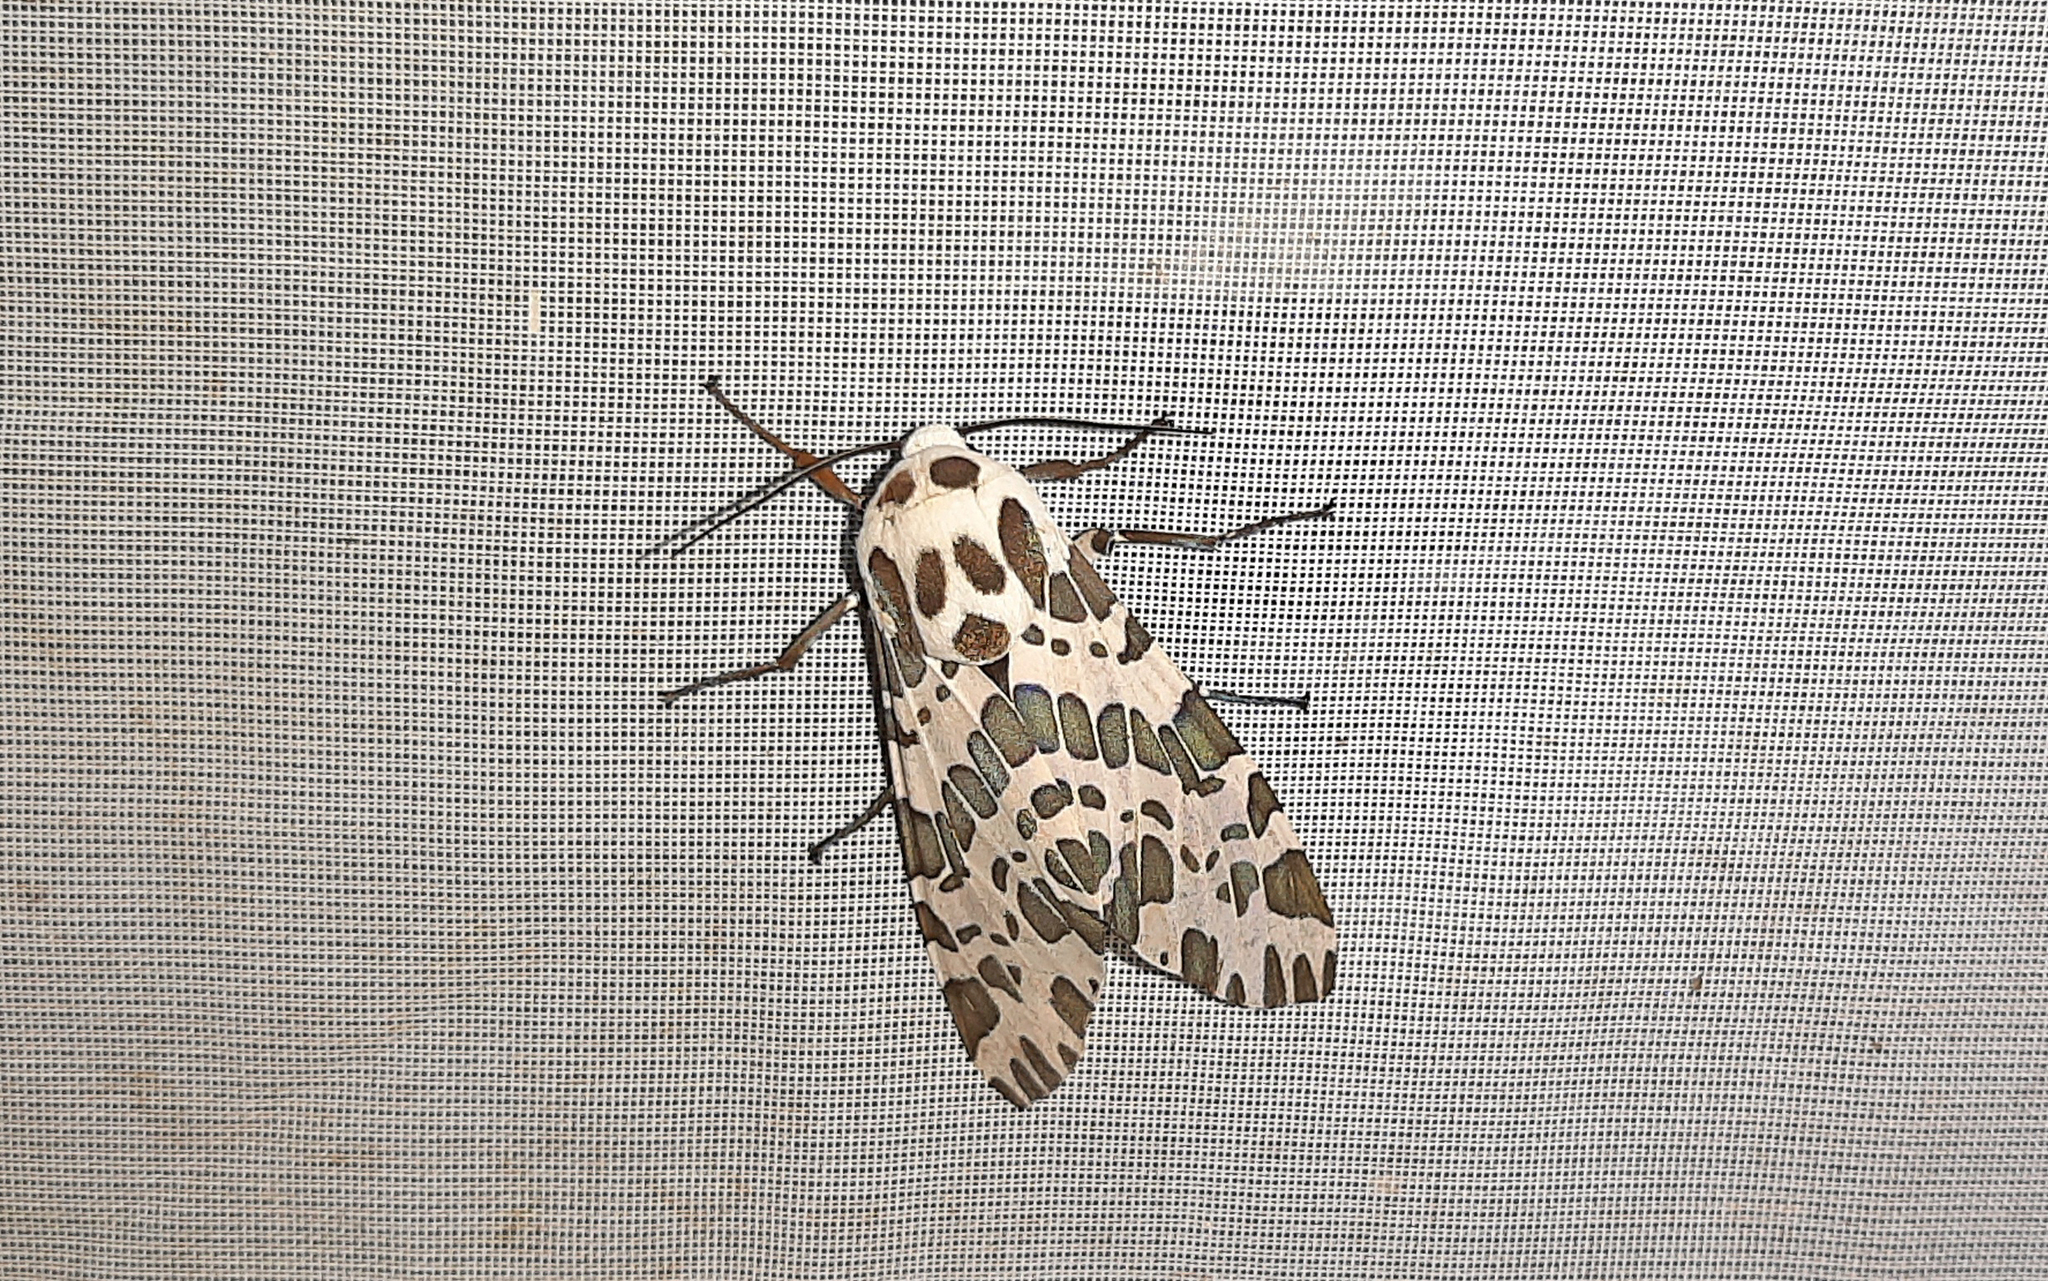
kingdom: Animalia
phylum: Arthropoda
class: Insecta
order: Lepidoptera
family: Erebidae
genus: Hypercompe
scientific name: Hypercompe magdalenae
